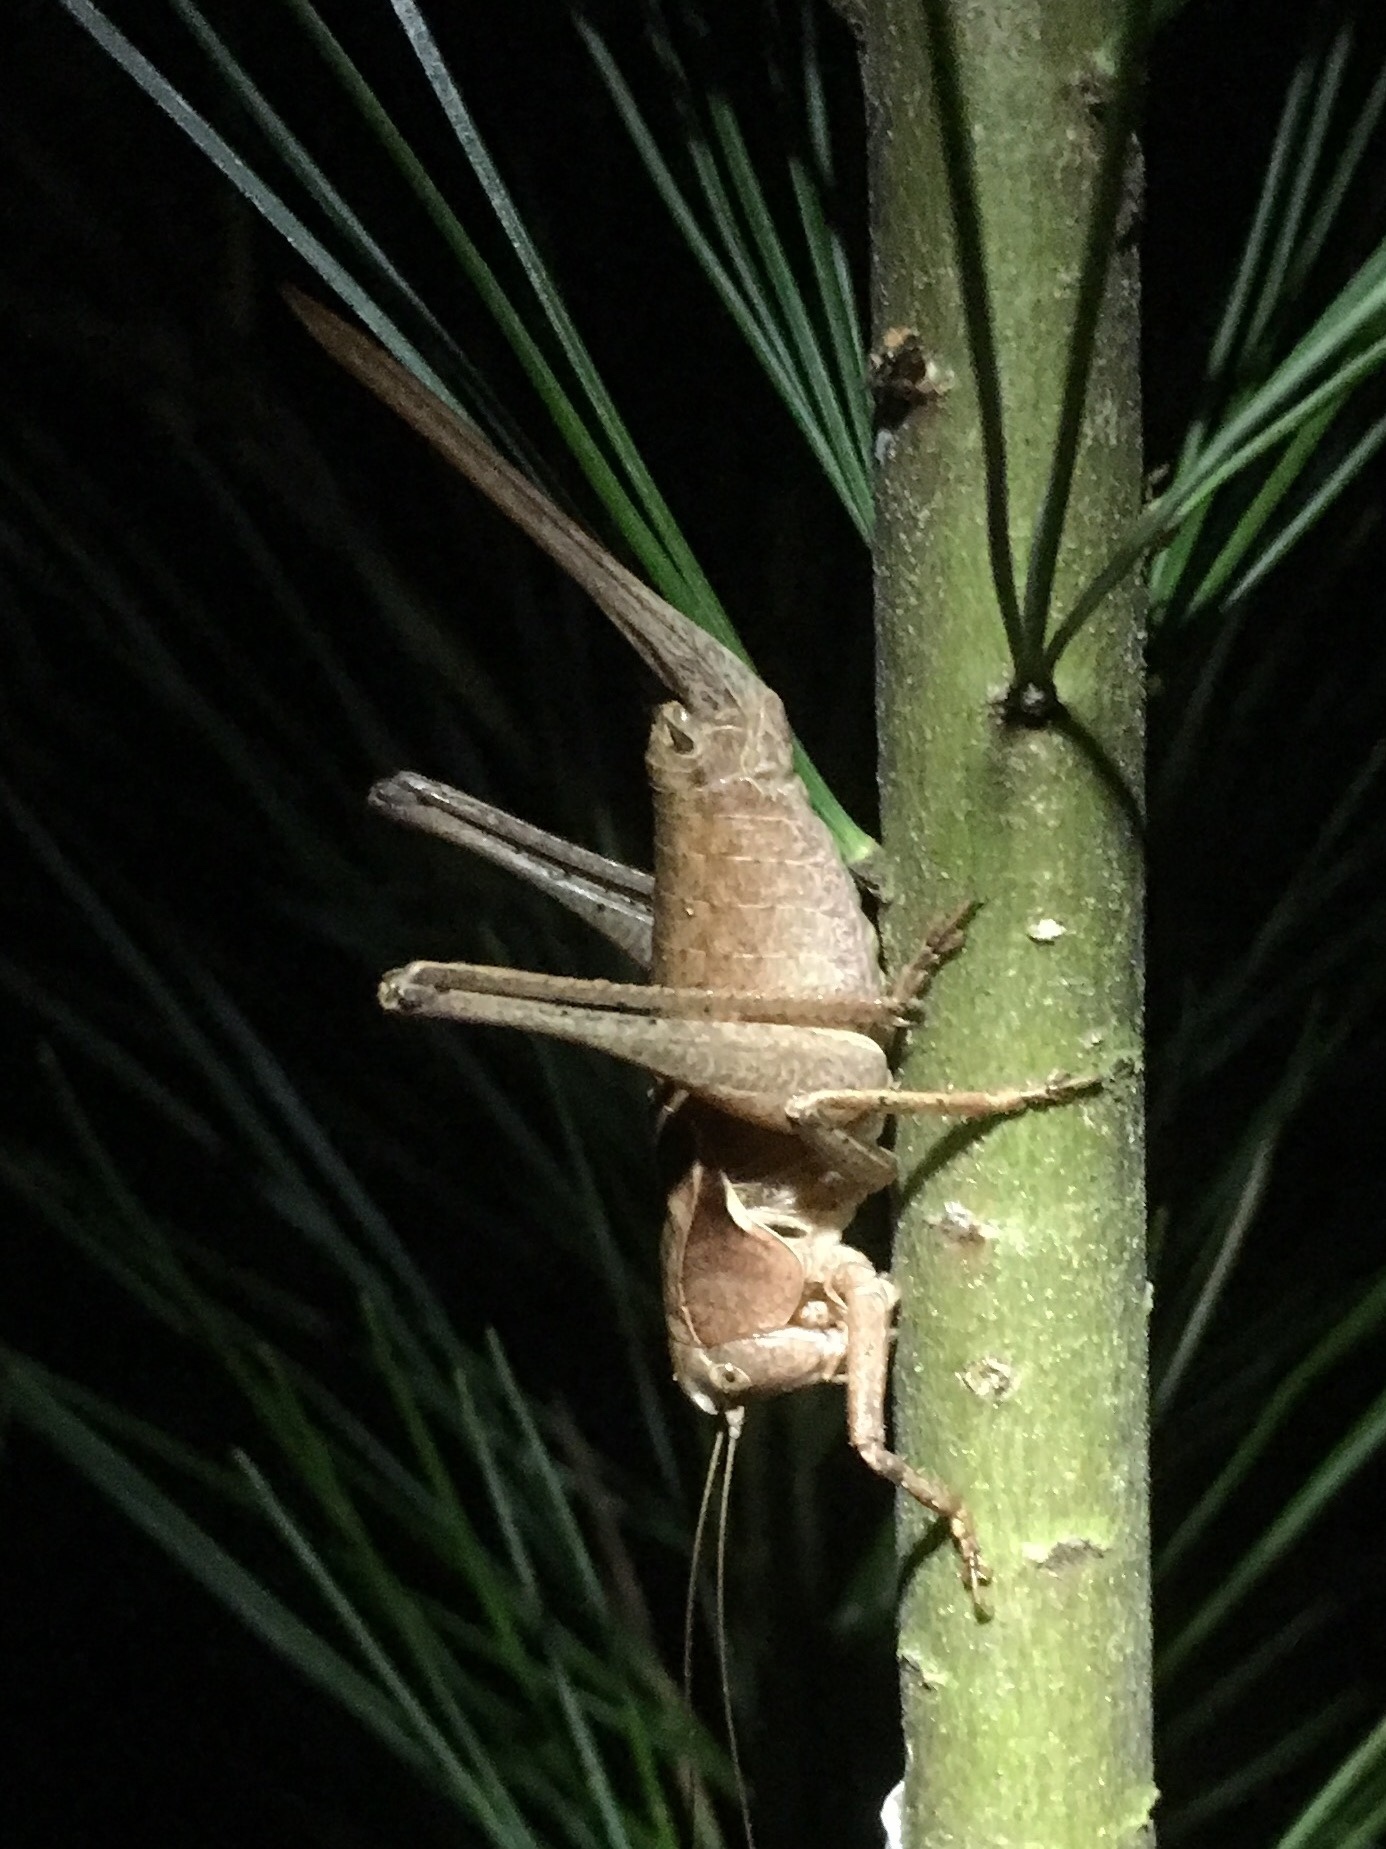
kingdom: Animalia
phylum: Arthropoda
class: Insecta
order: Orthoptera
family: Tettigoniidae
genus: Atlanticus
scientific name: Atlanticus davisi
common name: Davis's shield-bearer
